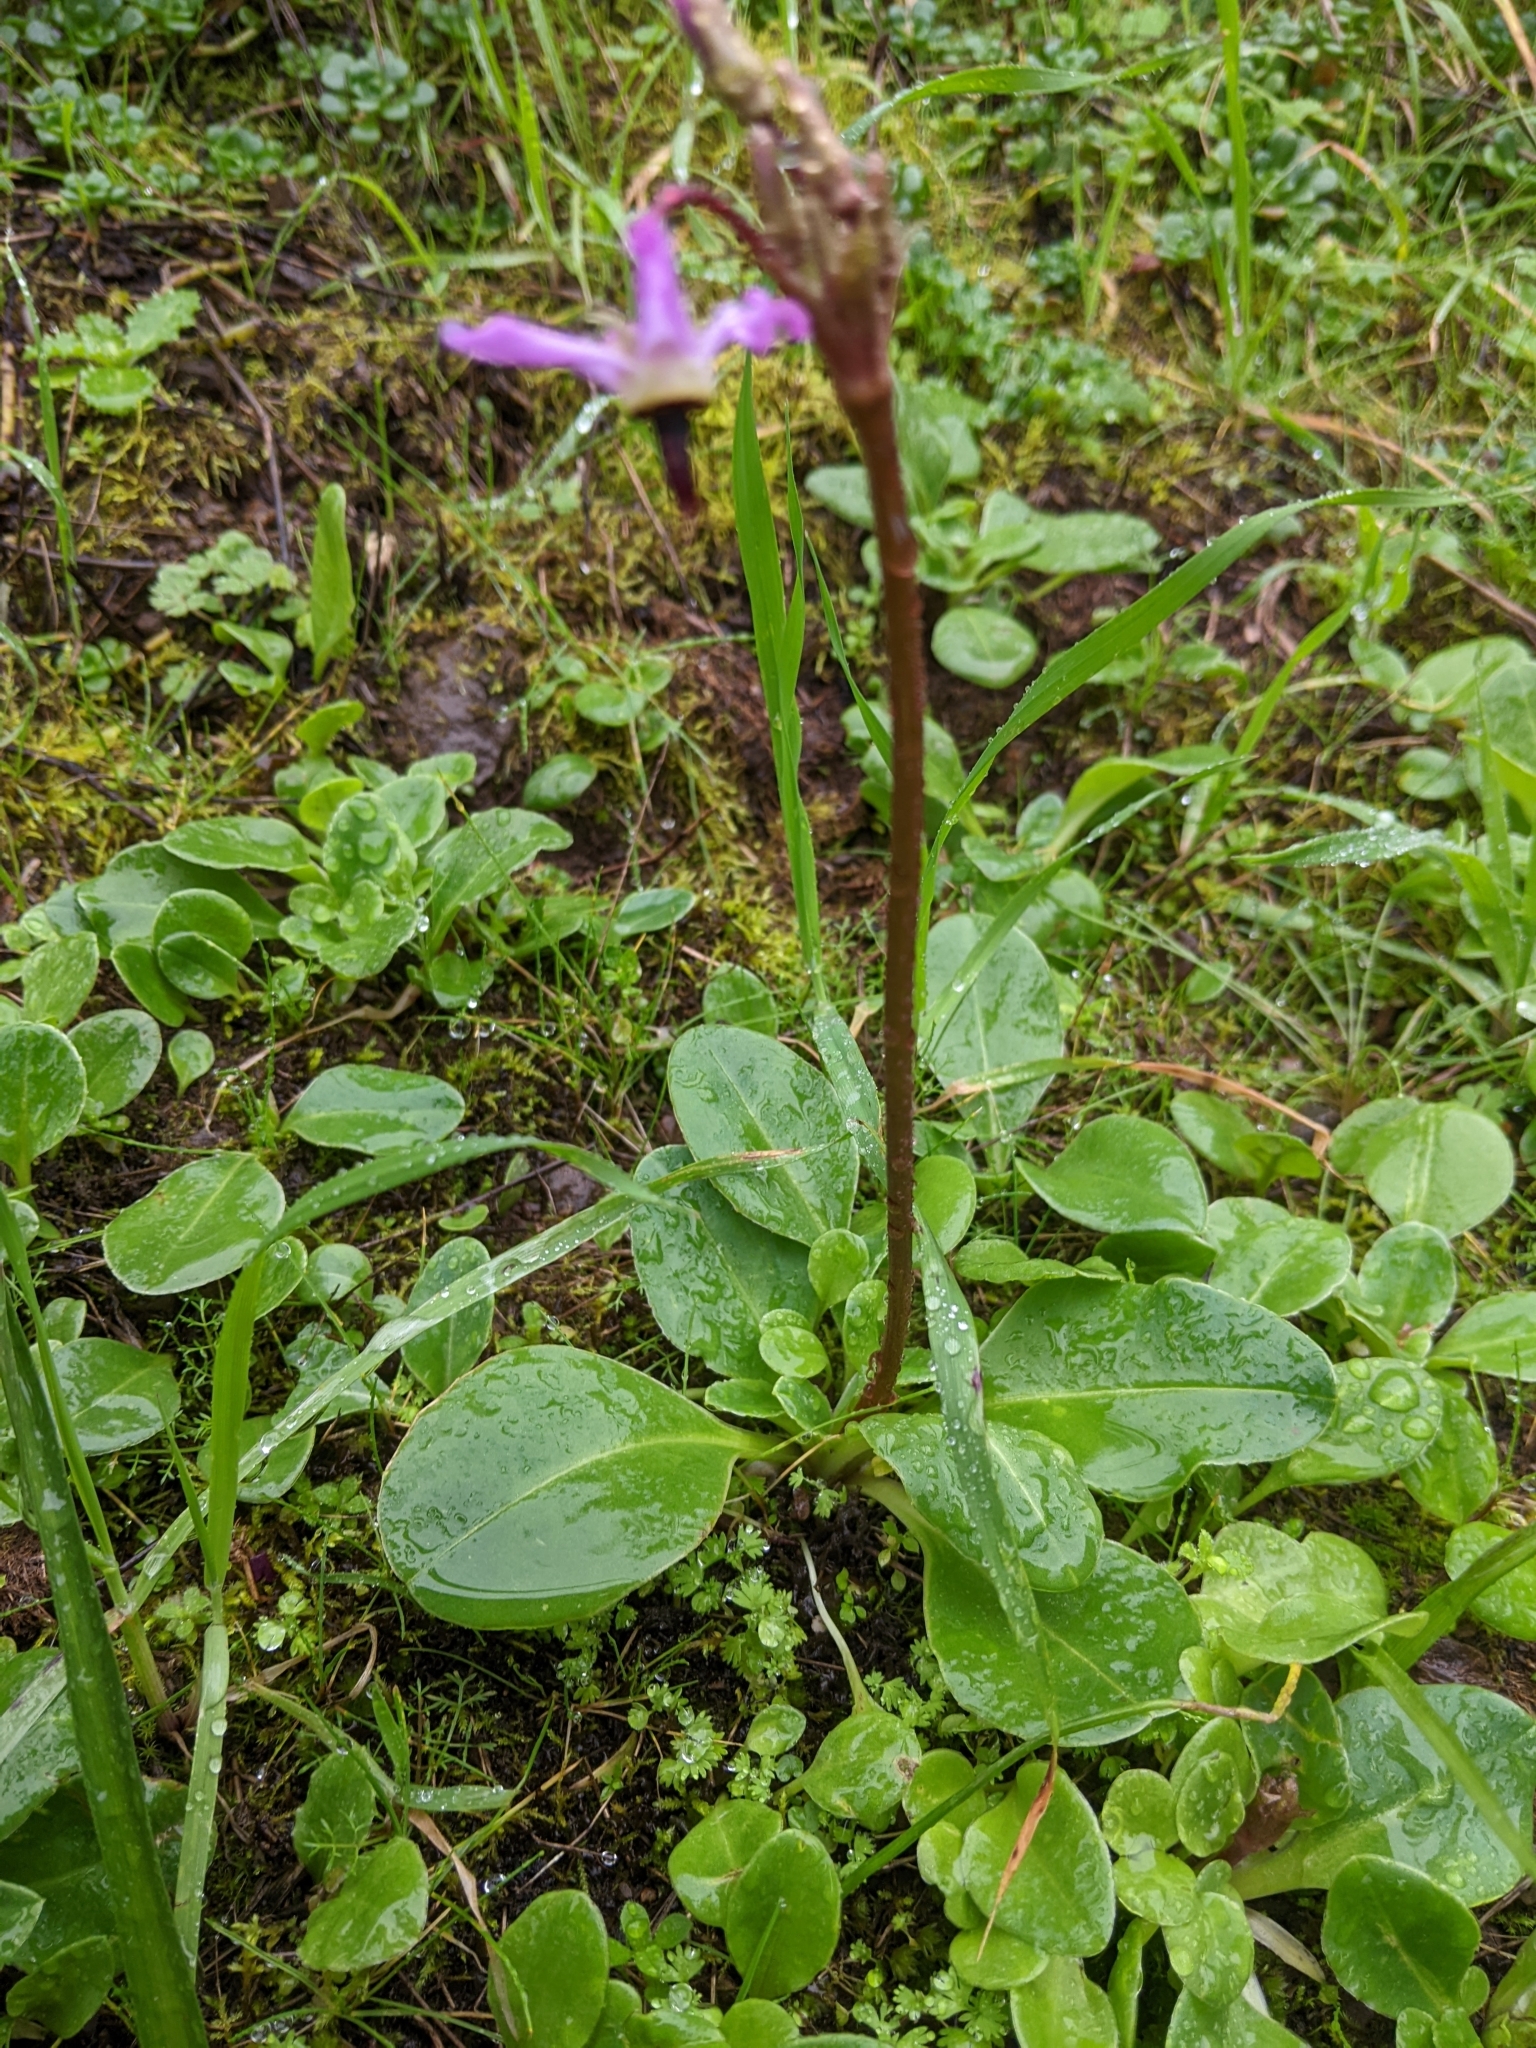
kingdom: Plantae
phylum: Tracheophyta
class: Magnoliopsida
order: Ericales
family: Primulaceae
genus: Dodecatheon
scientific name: Dodecatheon hendersonii
